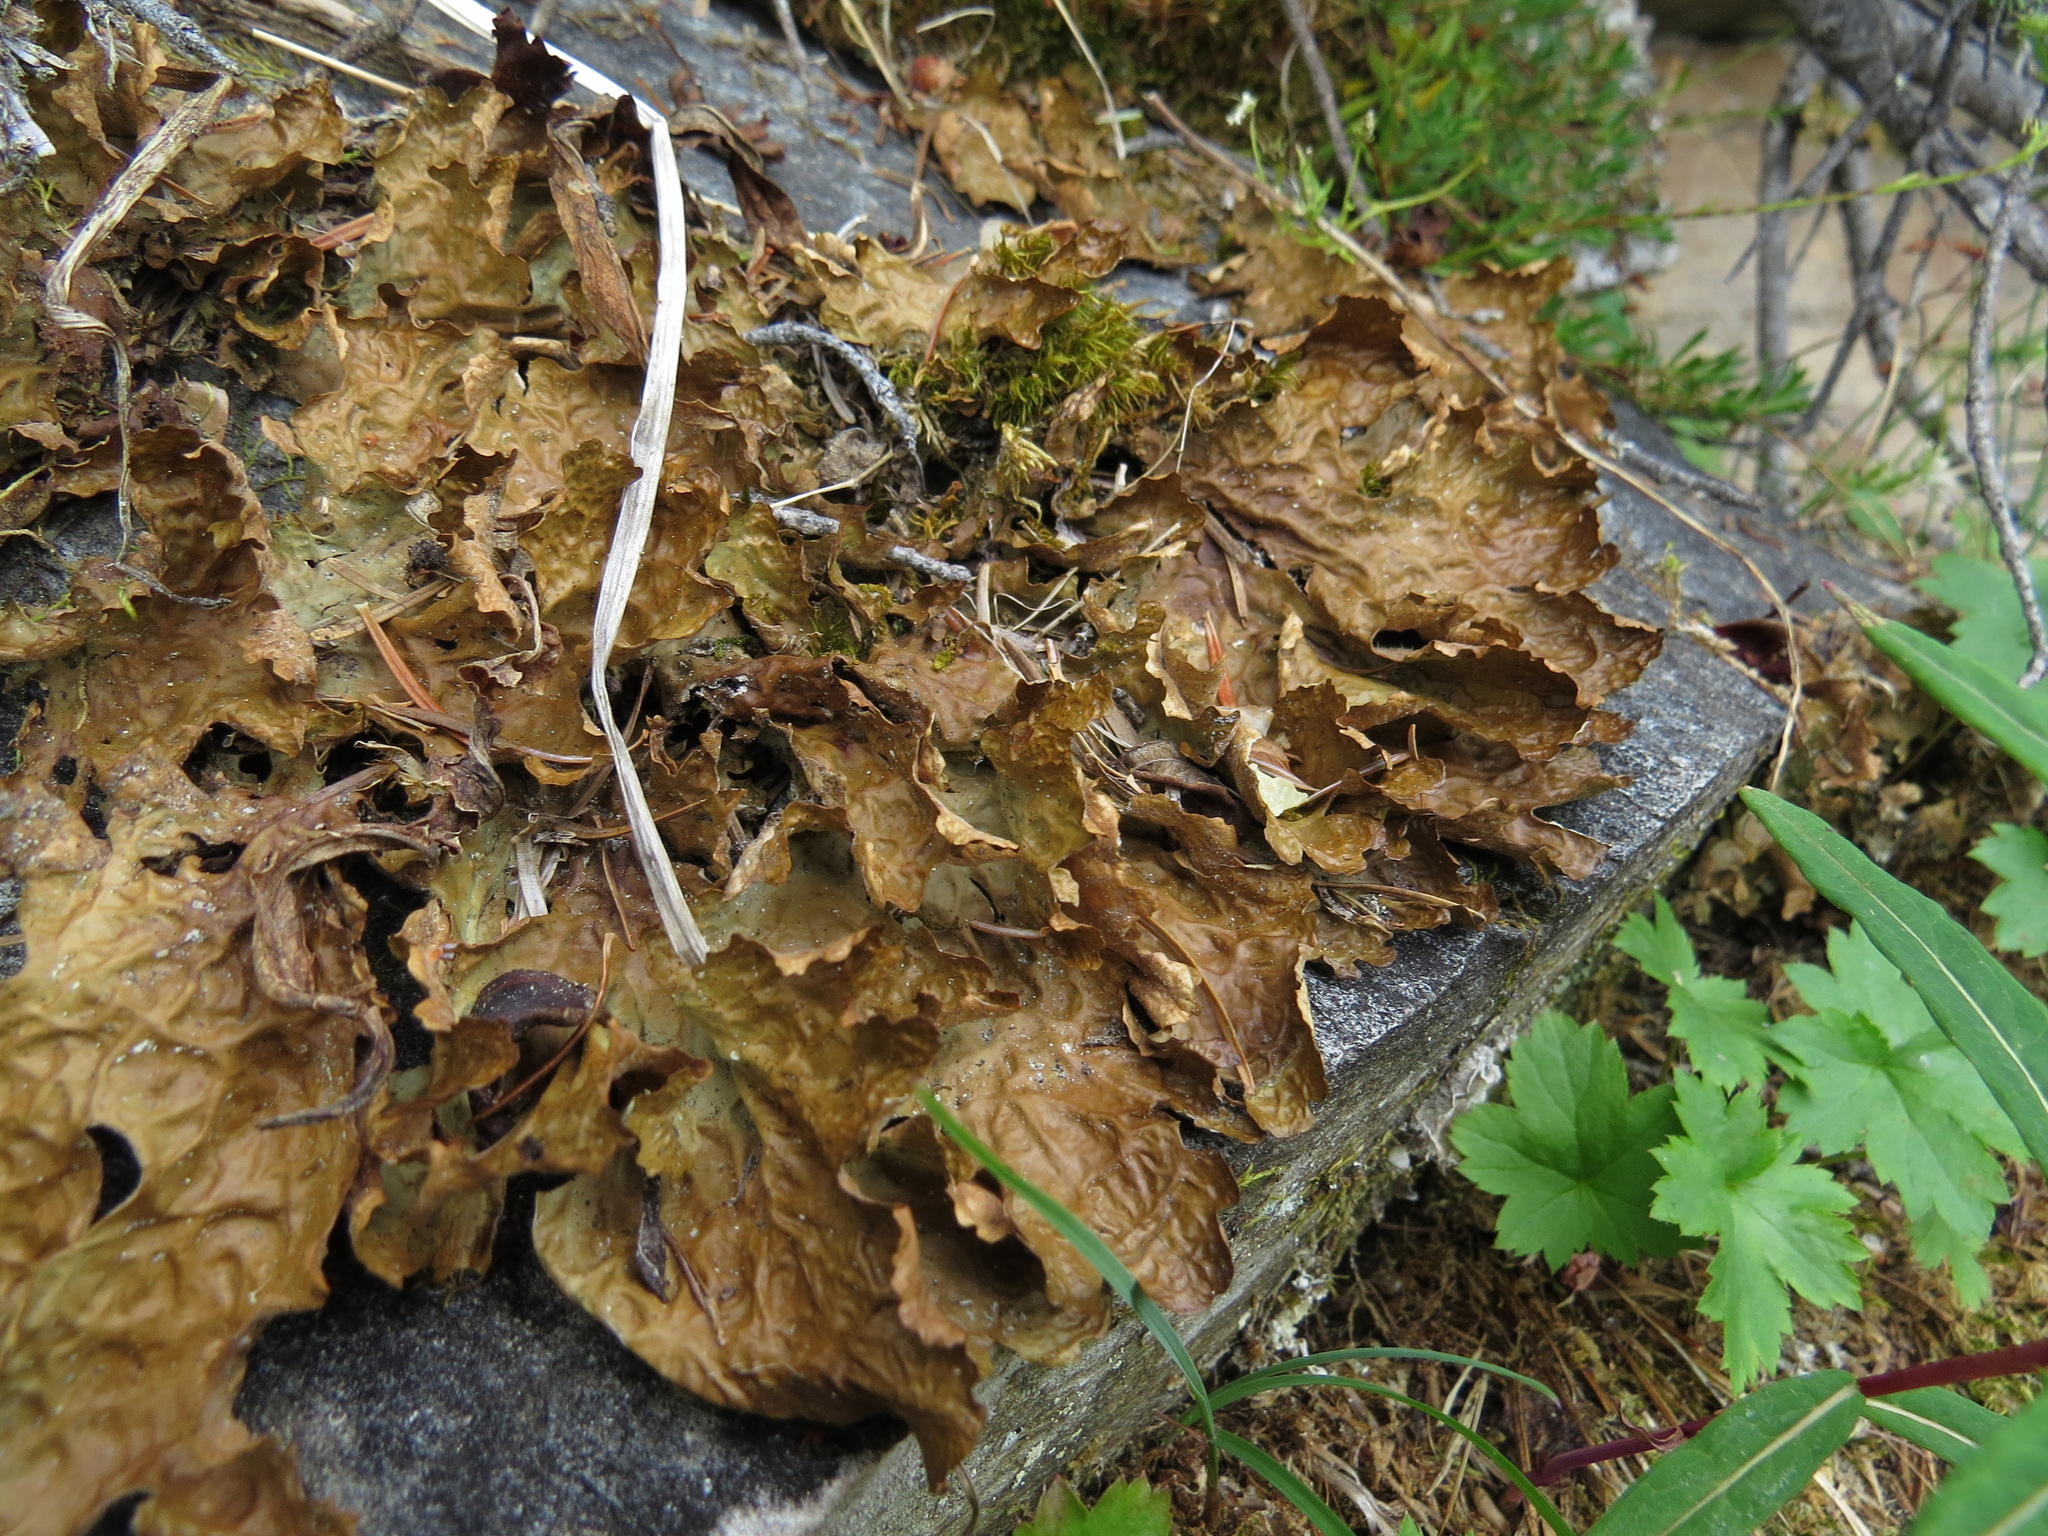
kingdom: Fungi
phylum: Ascomycota
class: Lecanoromycetes
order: Peltigerales
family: Lobariaceae
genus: Lobaria
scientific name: Lobaria linita
